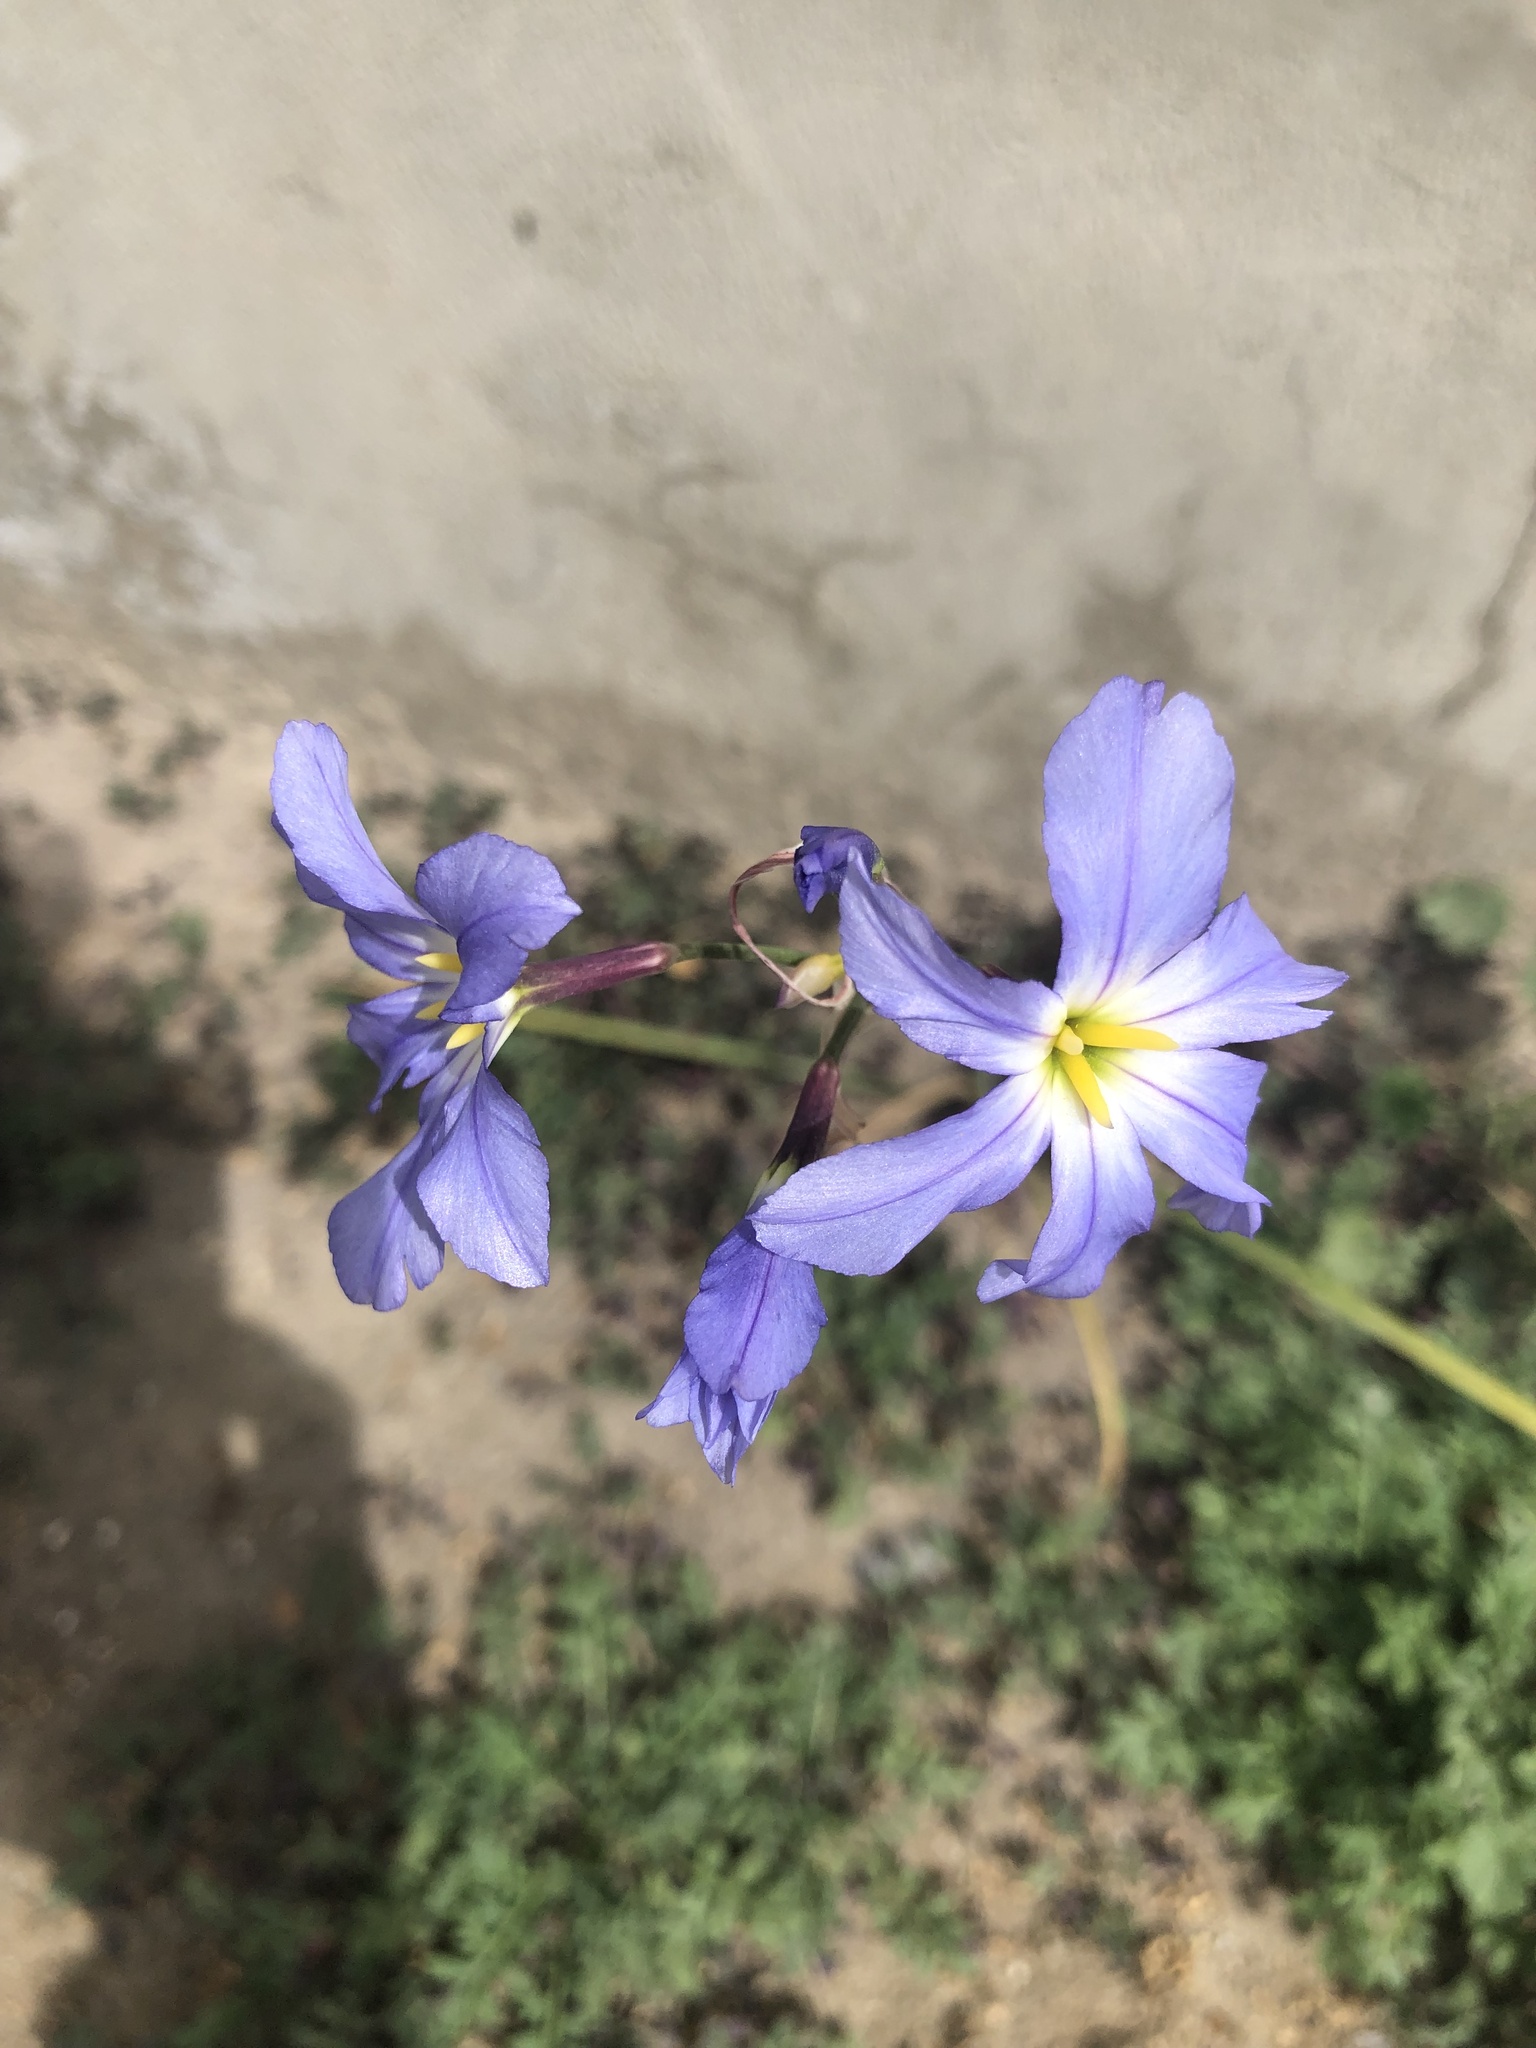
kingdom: Plantae
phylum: Tracheophyta
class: Liliopsida
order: Asparagales
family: Amaryllidaceae
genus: Leucocoryne
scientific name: Leucocoryne coquimbensis
